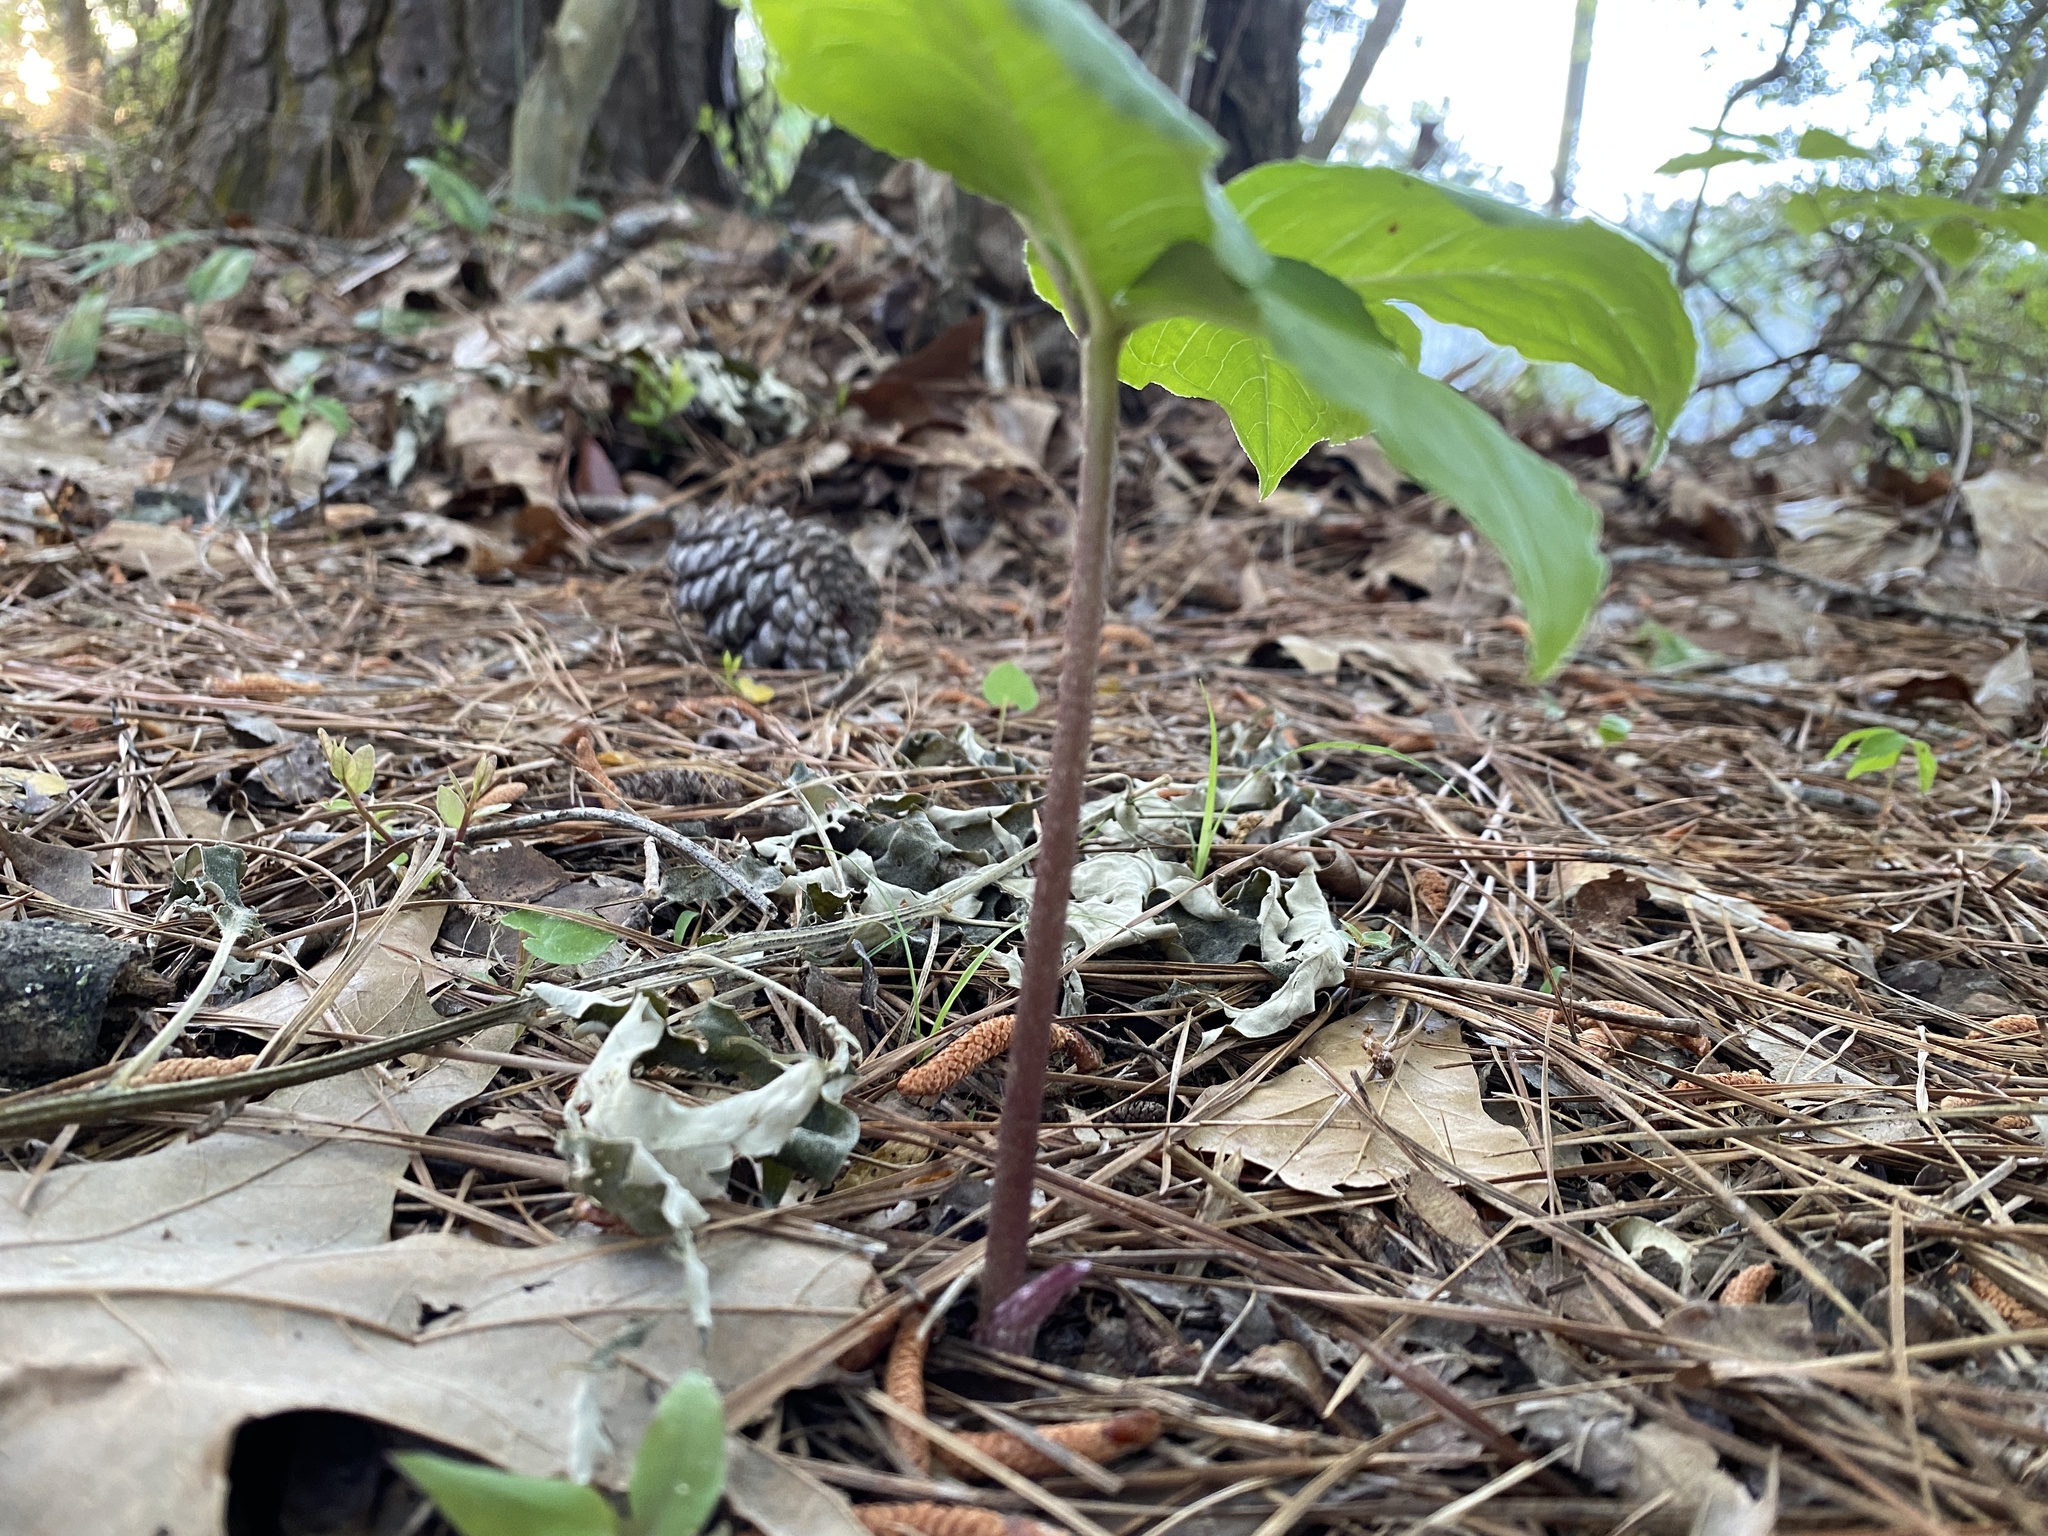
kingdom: Plantae
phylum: Tracheophyta
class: Liliopsida
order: Alismatales
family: Araceae
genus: Arisaema
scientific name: Arisaema quinatum
